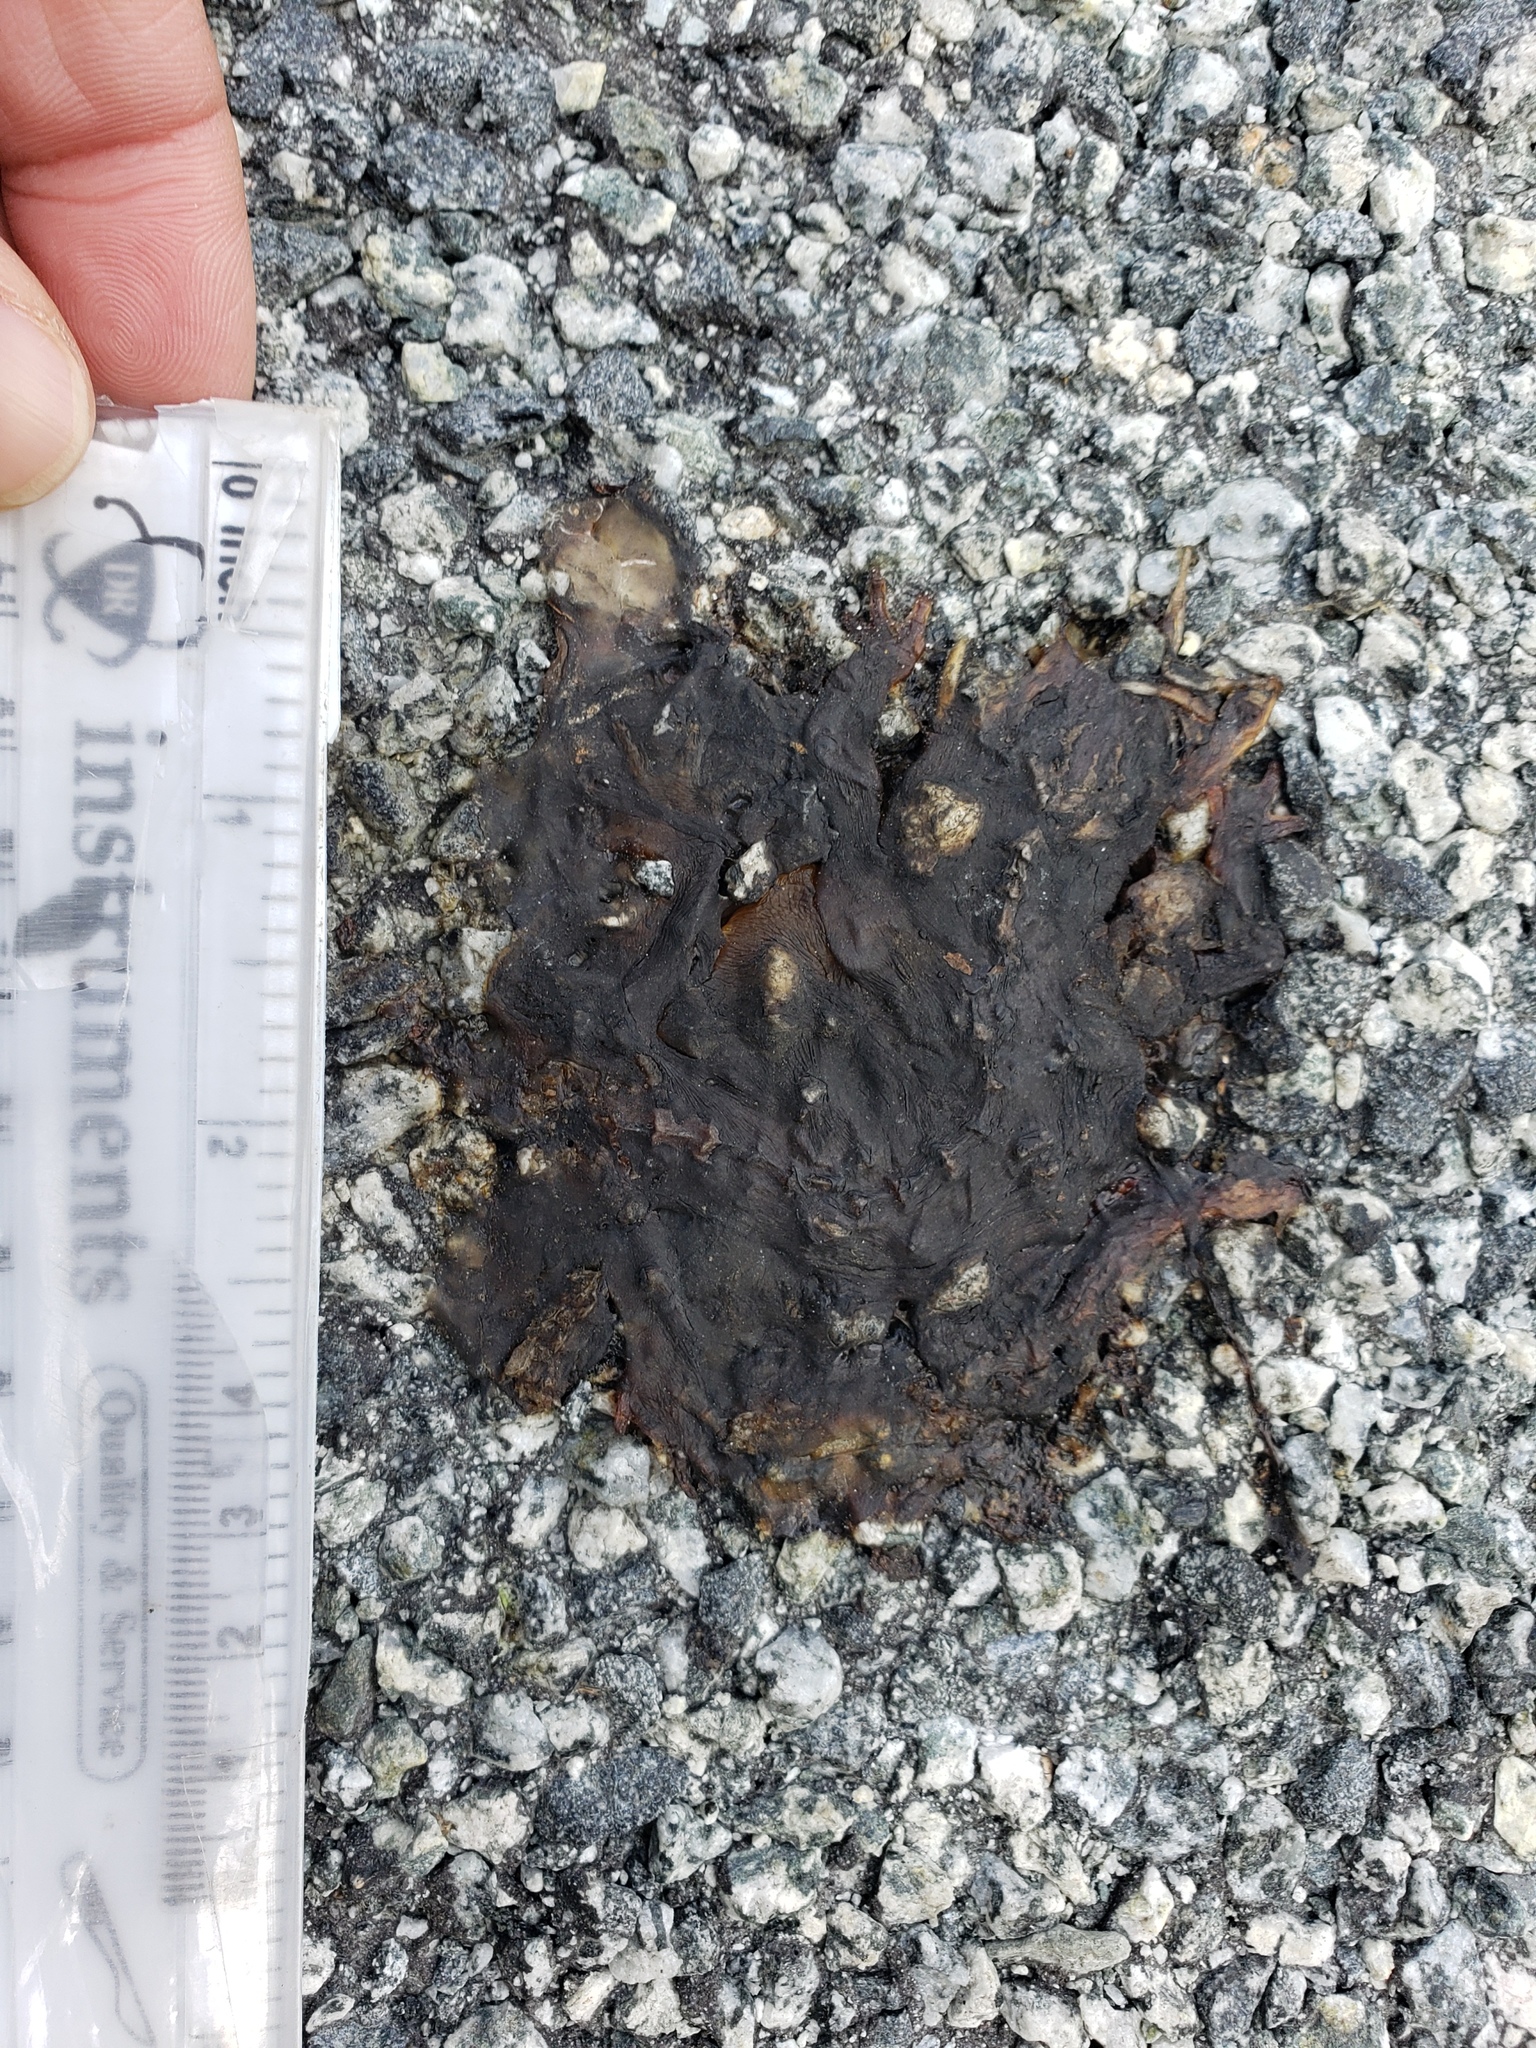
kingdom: Animalia
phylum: Chordata
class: Amphibia
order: Caudata
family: Salamandridae
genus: Taricha
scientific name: Taricha
